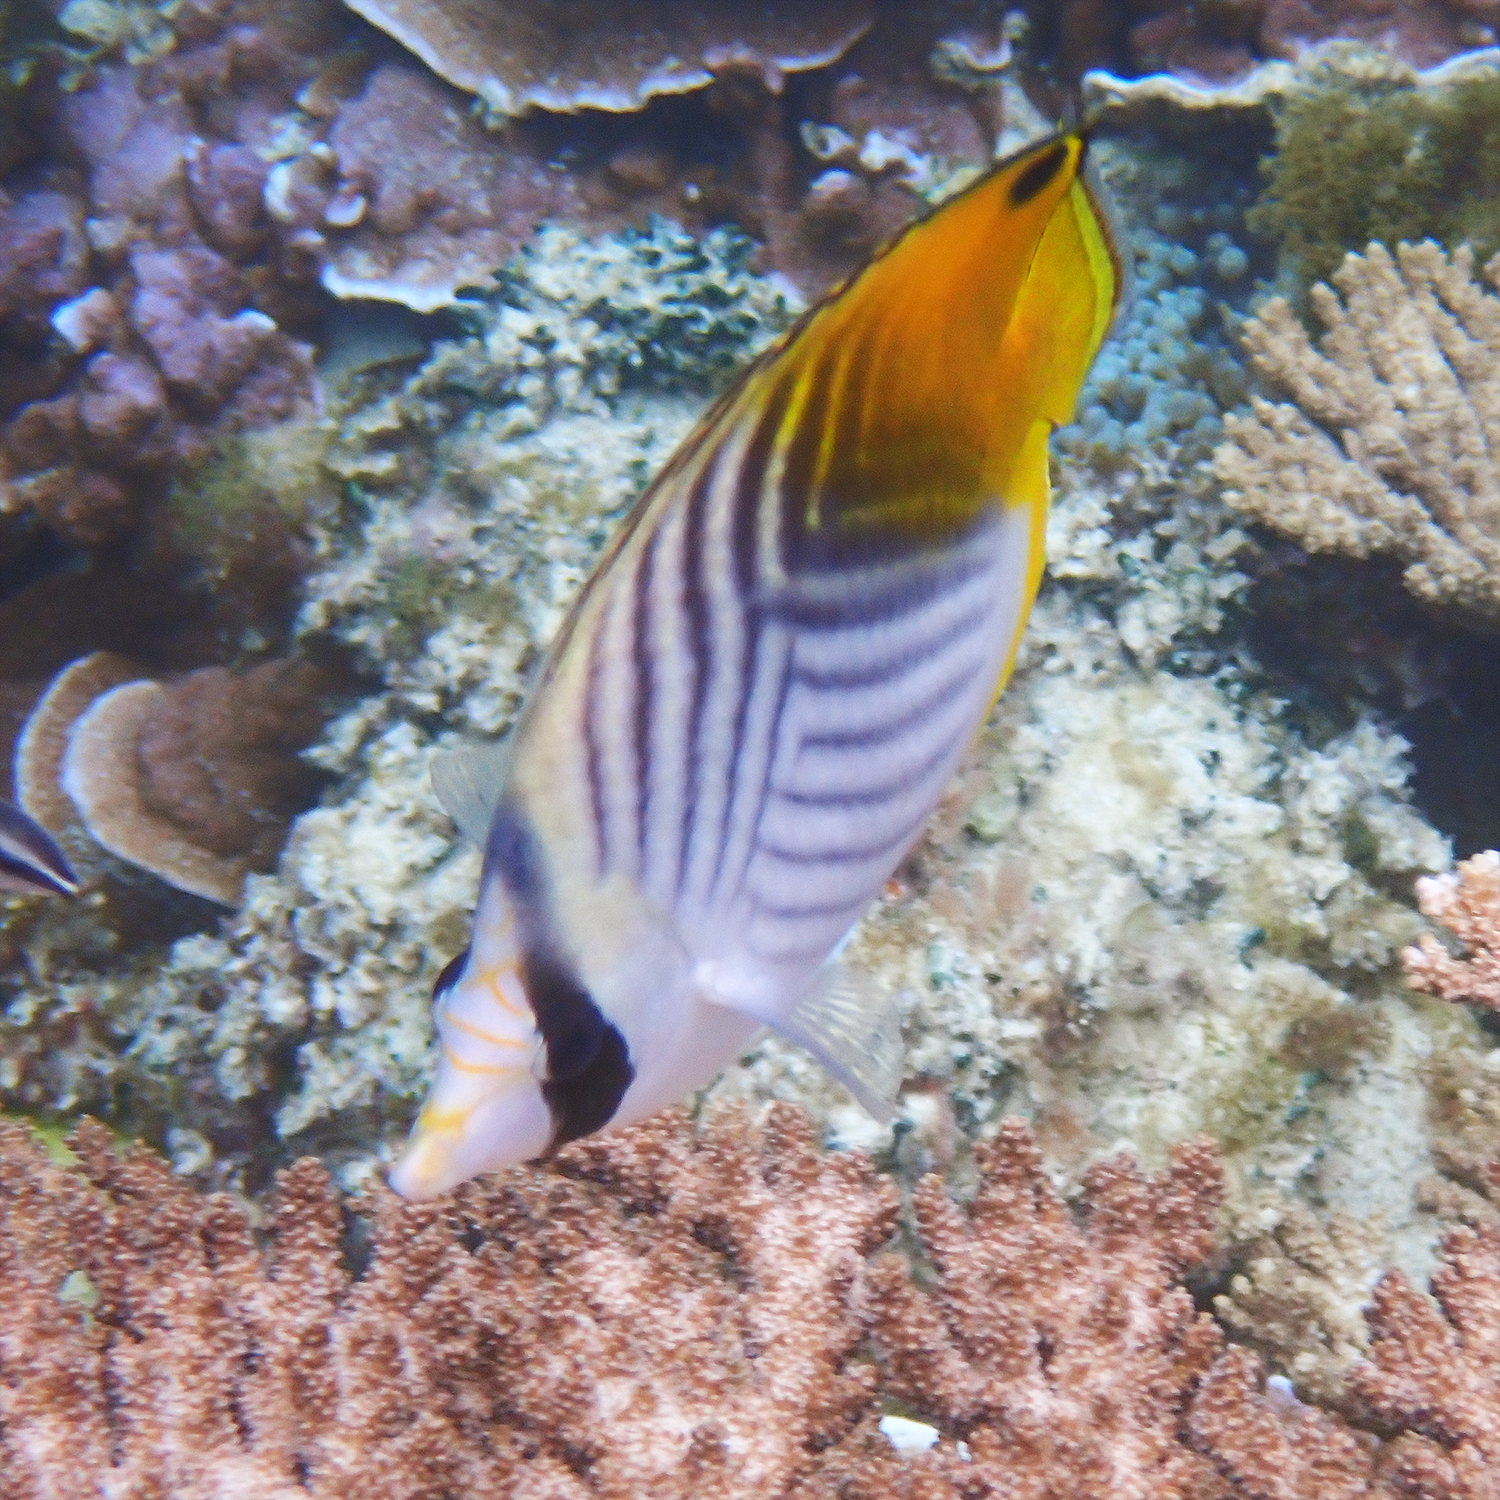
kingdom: Animalia
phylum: Chordata
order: Perciformes
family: Chaetodontidae
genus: Chaetodon
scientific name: Chaetodon auriga
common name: Threadfin butterflyfish
